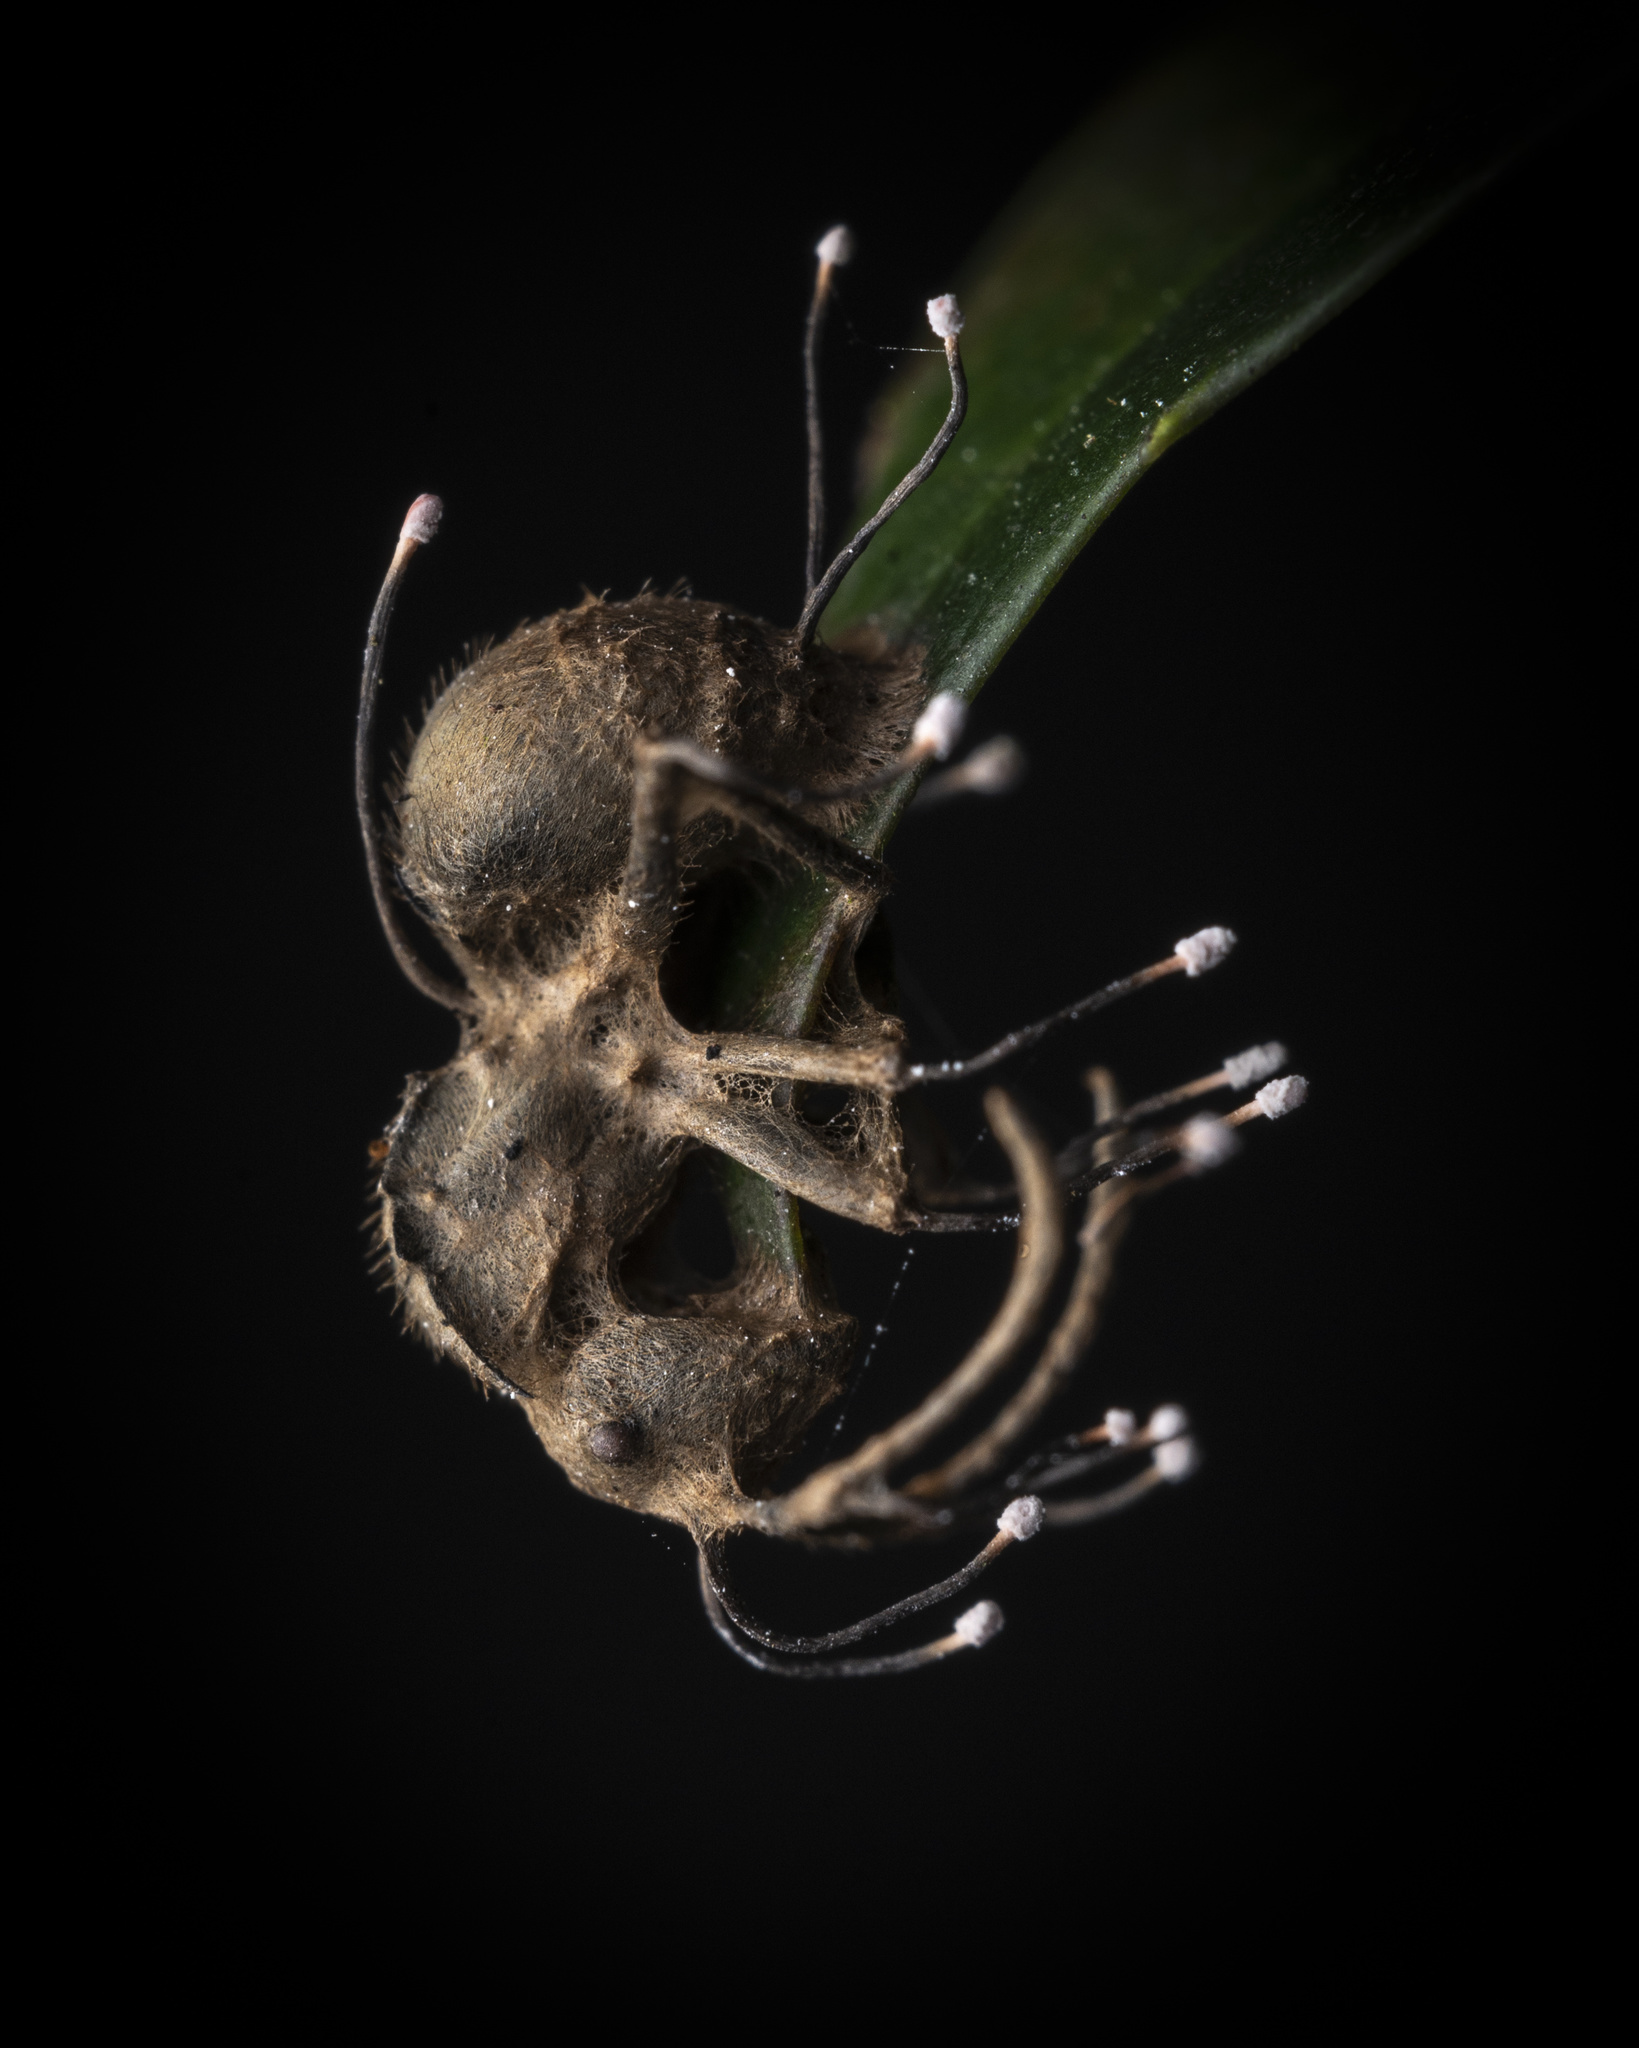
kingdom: Fungi
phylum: Ascomycota
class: Sordariomycetes
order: Hypocreales
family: Ophiocordycipitaceae
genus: Ophiocordyceps
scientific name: Ophiocordyceps buquetii
